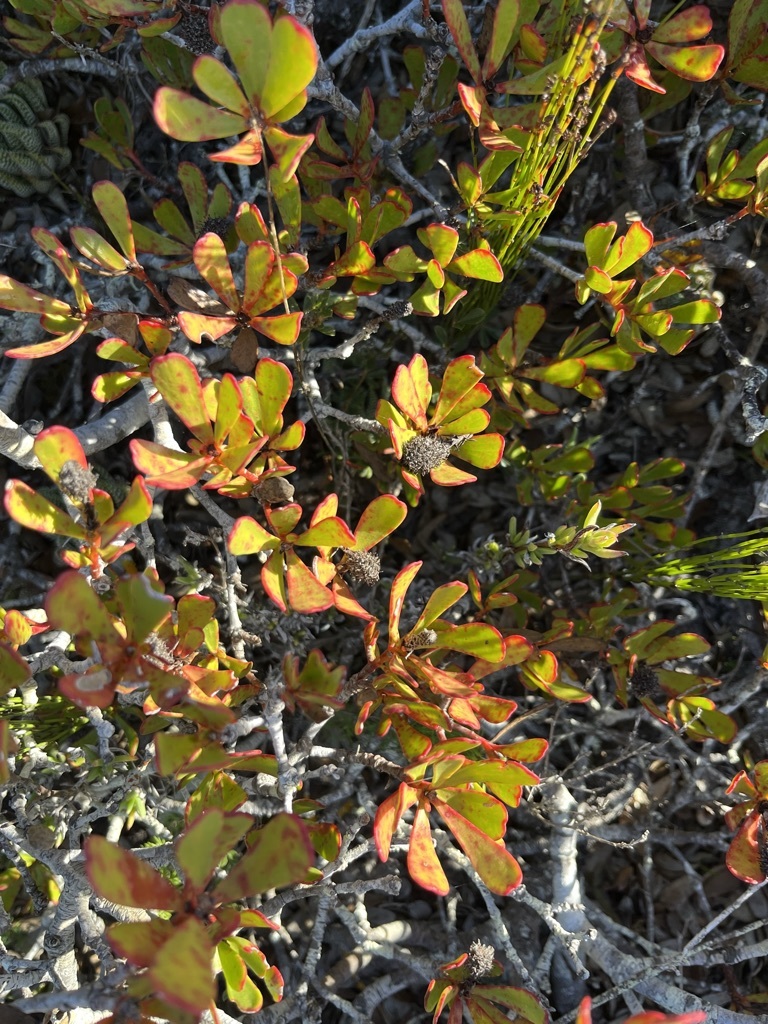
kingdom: Plantae
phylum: Tracheophyta
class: Magnoliopsida
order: Proteales
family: Proteaceae
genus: Leucadendron
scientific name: Leucadendron muirii
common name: Silver-ball conebush
